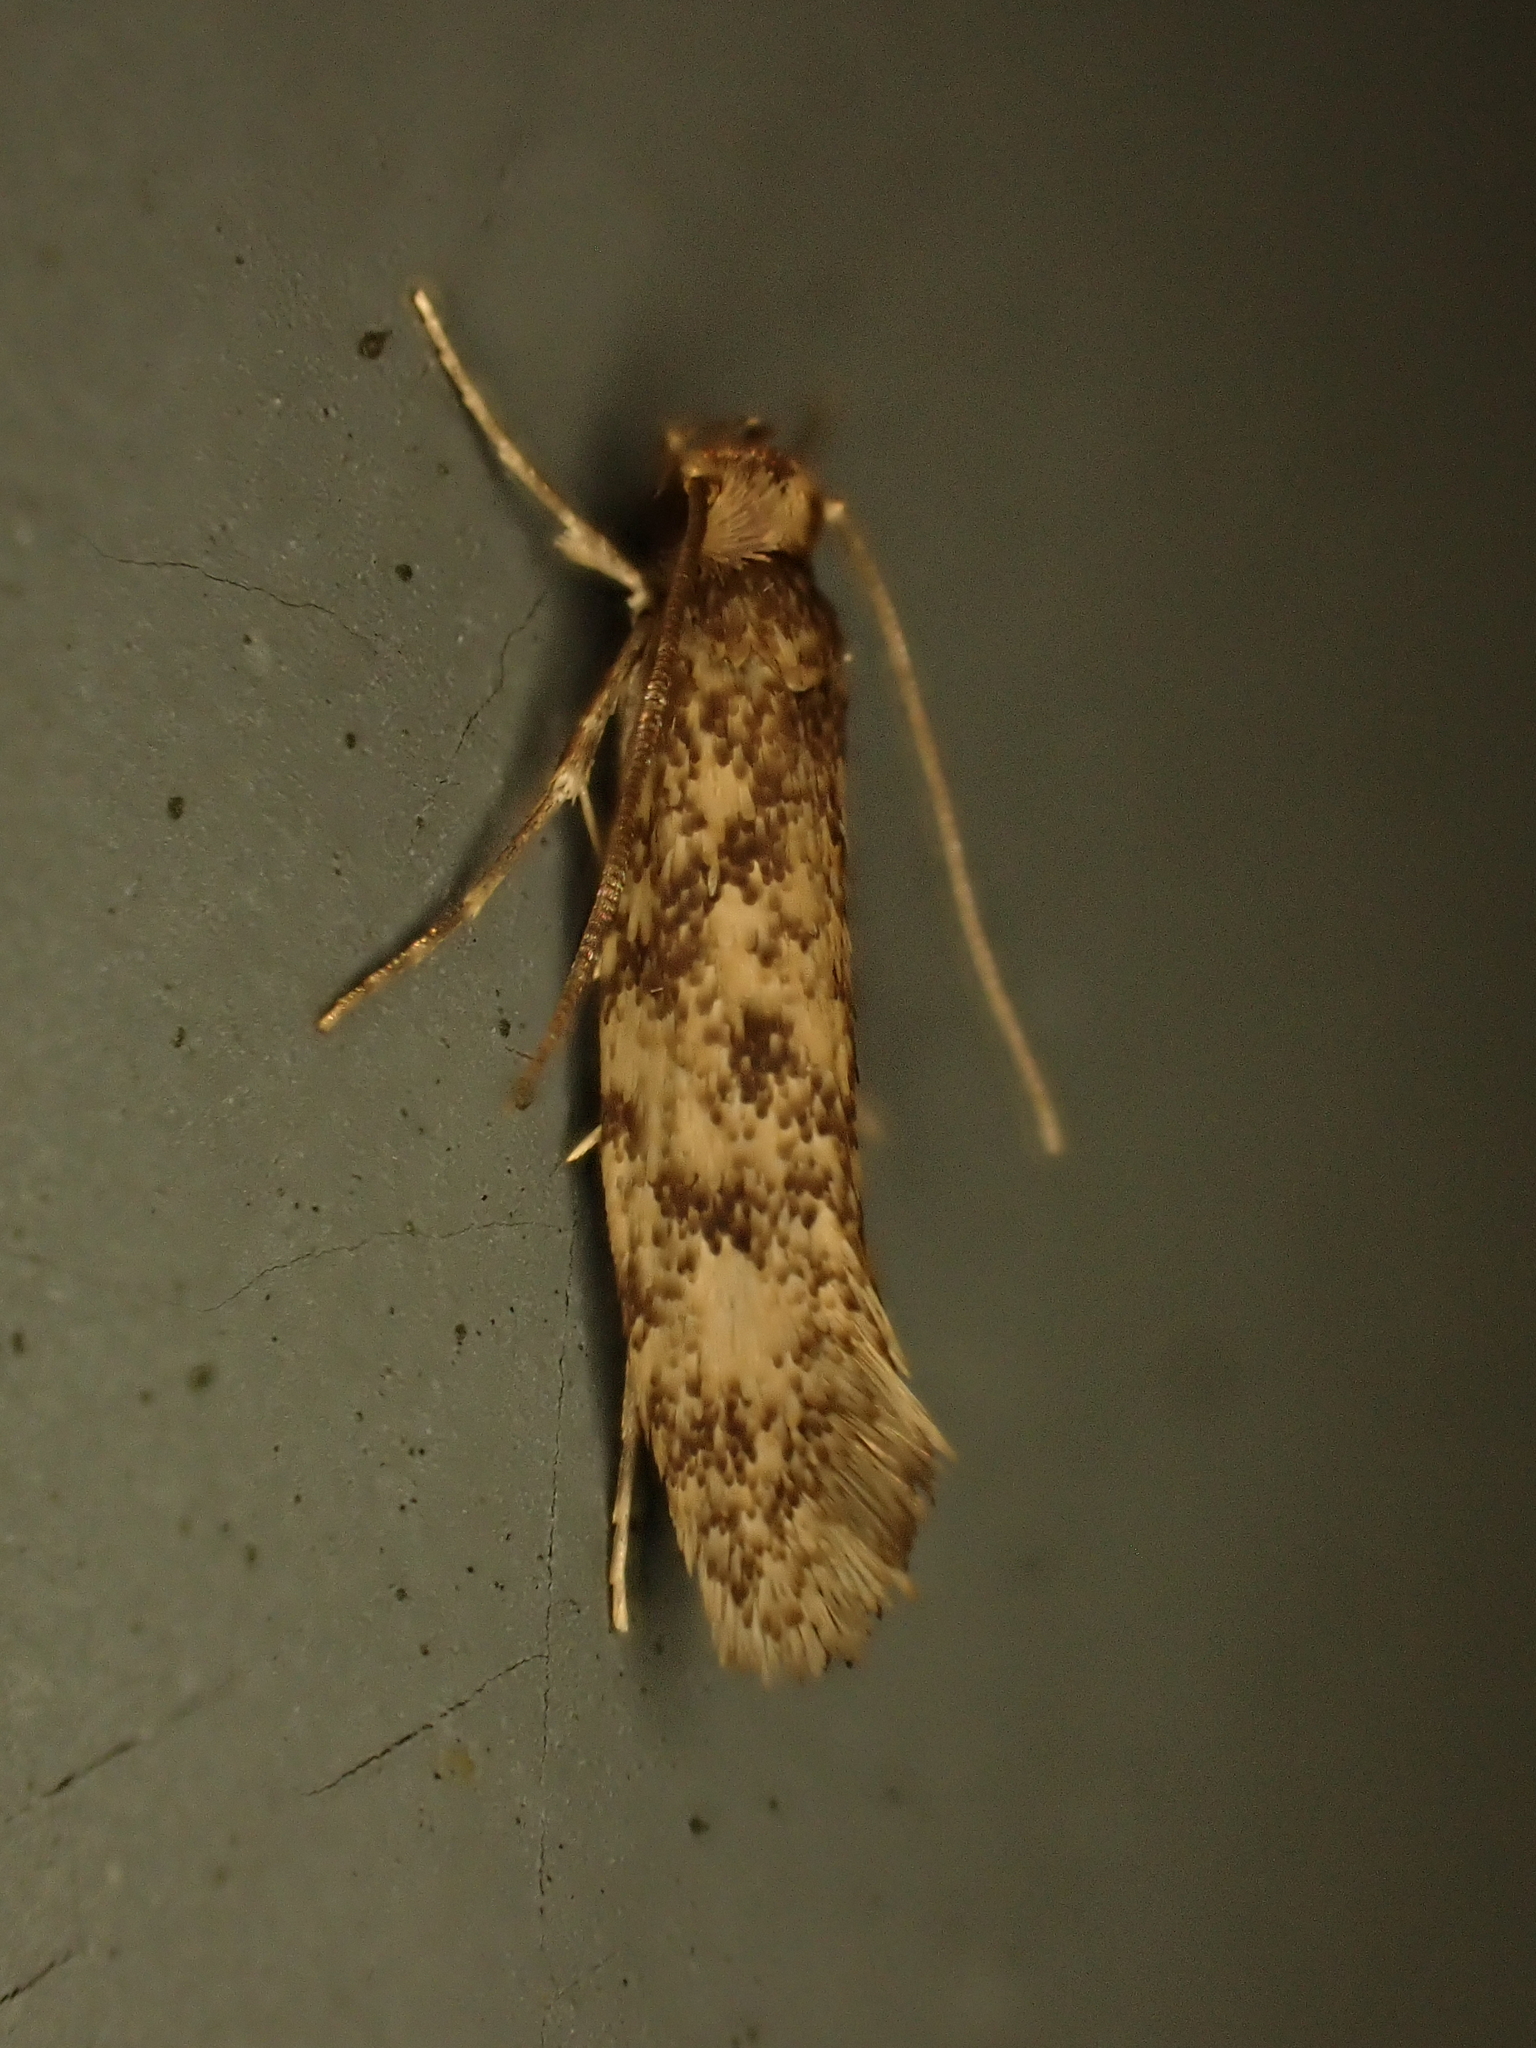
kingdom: Animalia
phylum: Arthropoda
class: Insecta
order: Lepidoptera
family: Tineidae
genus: Lindera
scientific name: Lindera tessellatella
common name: Moth
